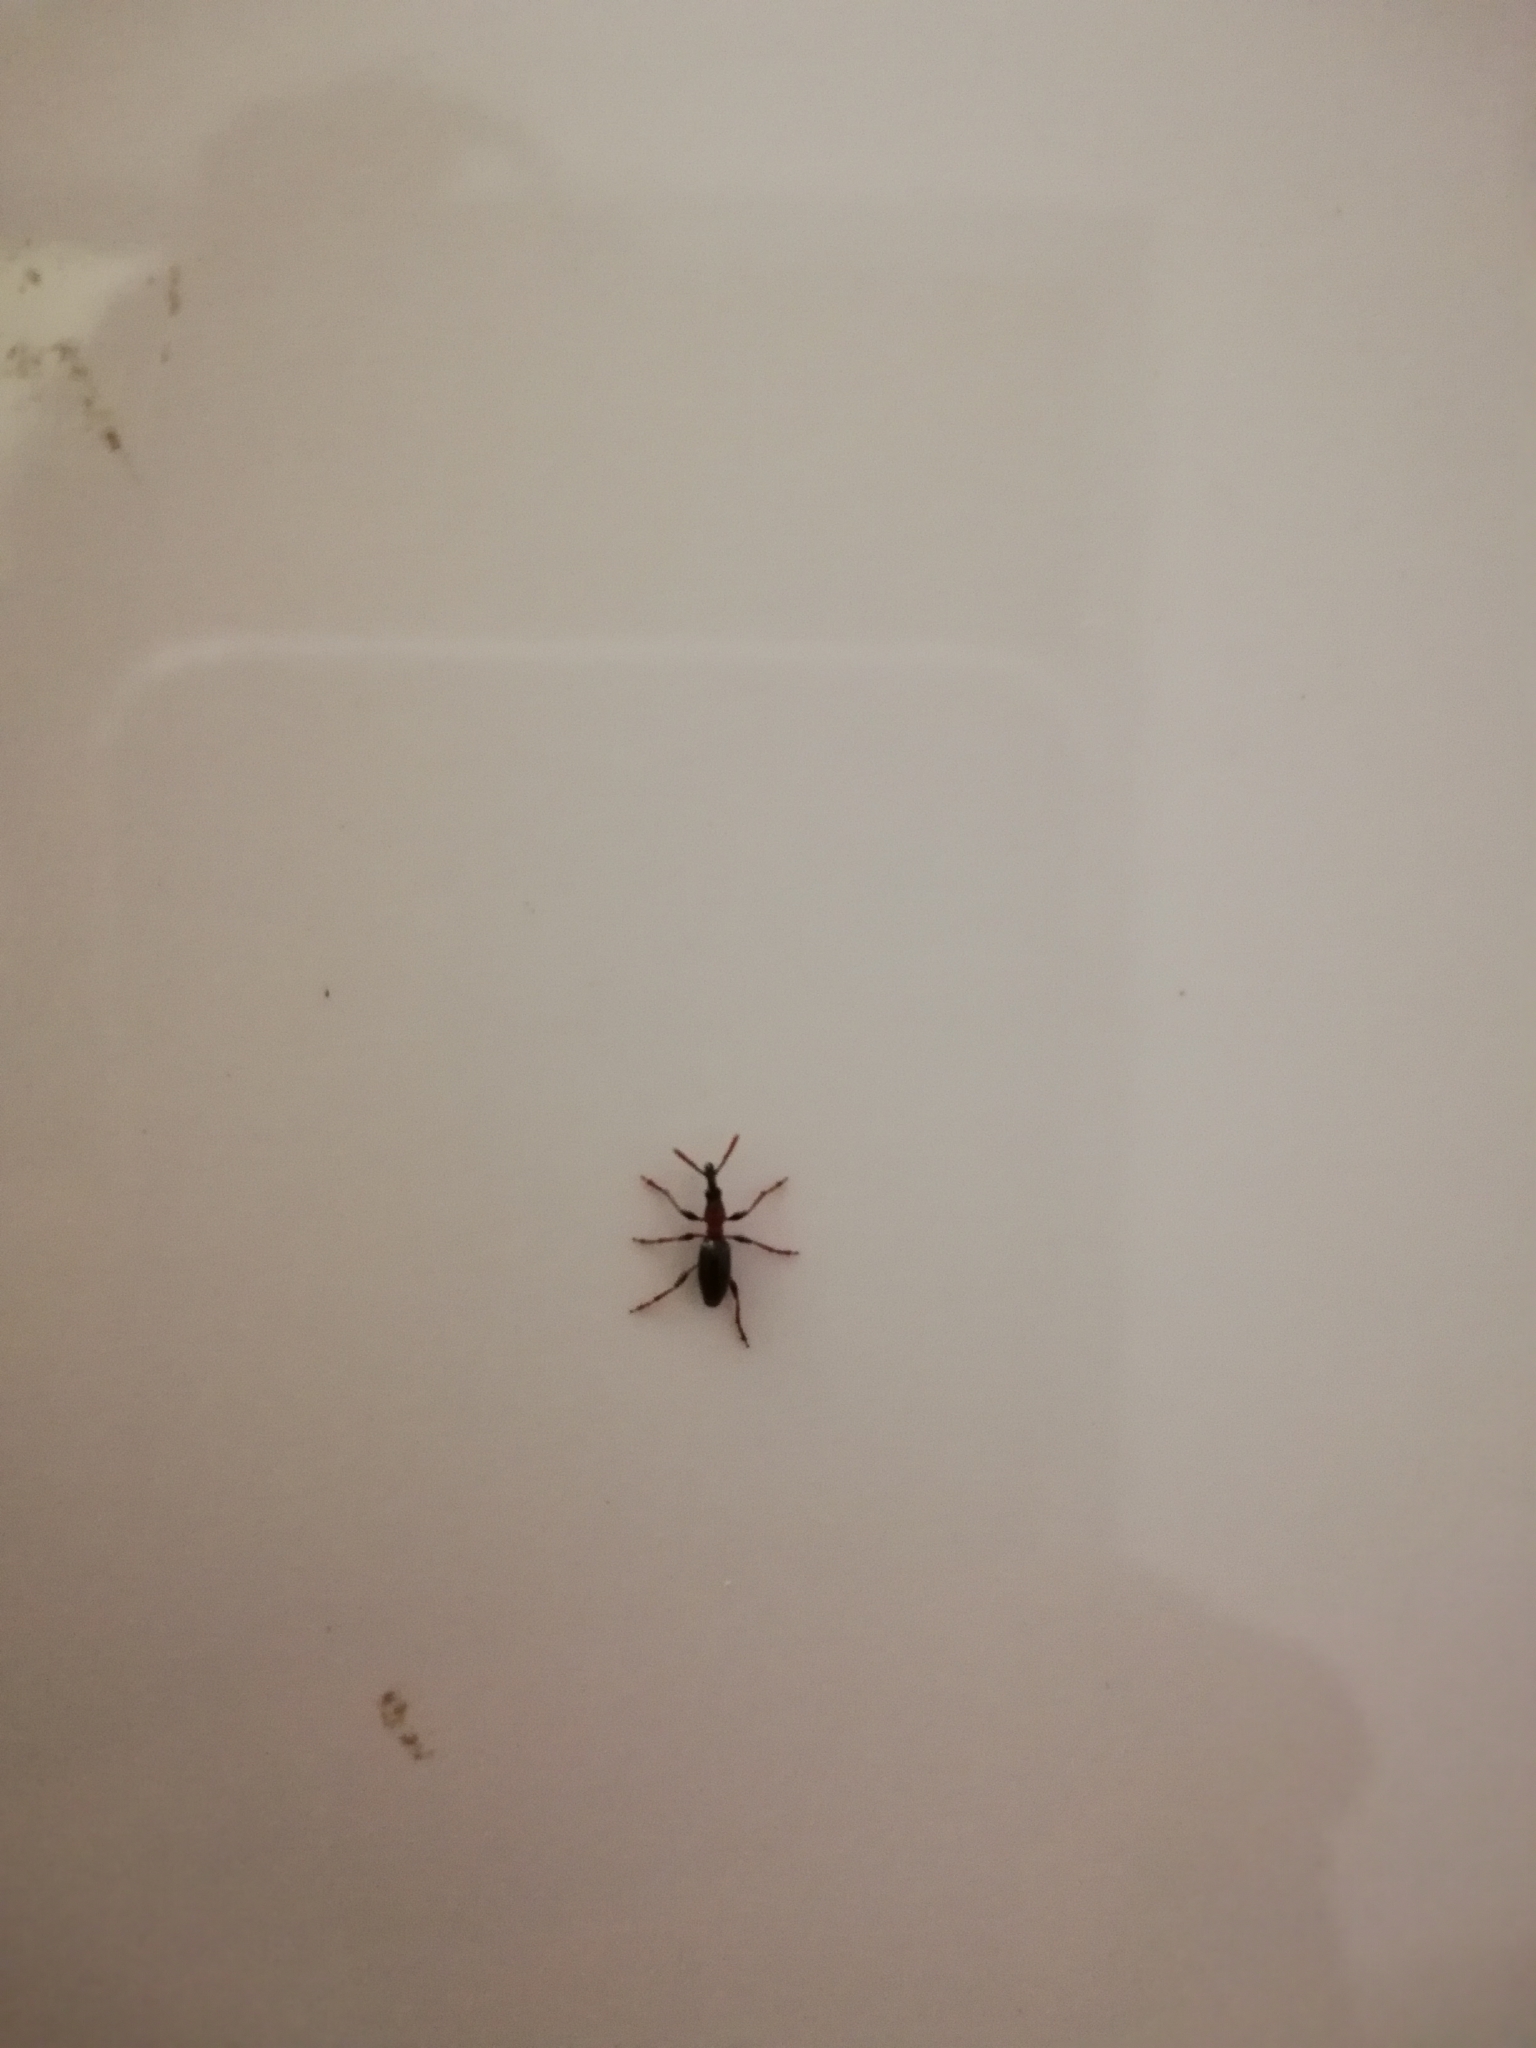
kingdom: Animalia
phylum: Arthropoda
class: Insecta
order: Coleoptera
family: Brentidae
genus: Cylas
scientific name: Cylas formicarius
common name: Sweetpotato weevil
